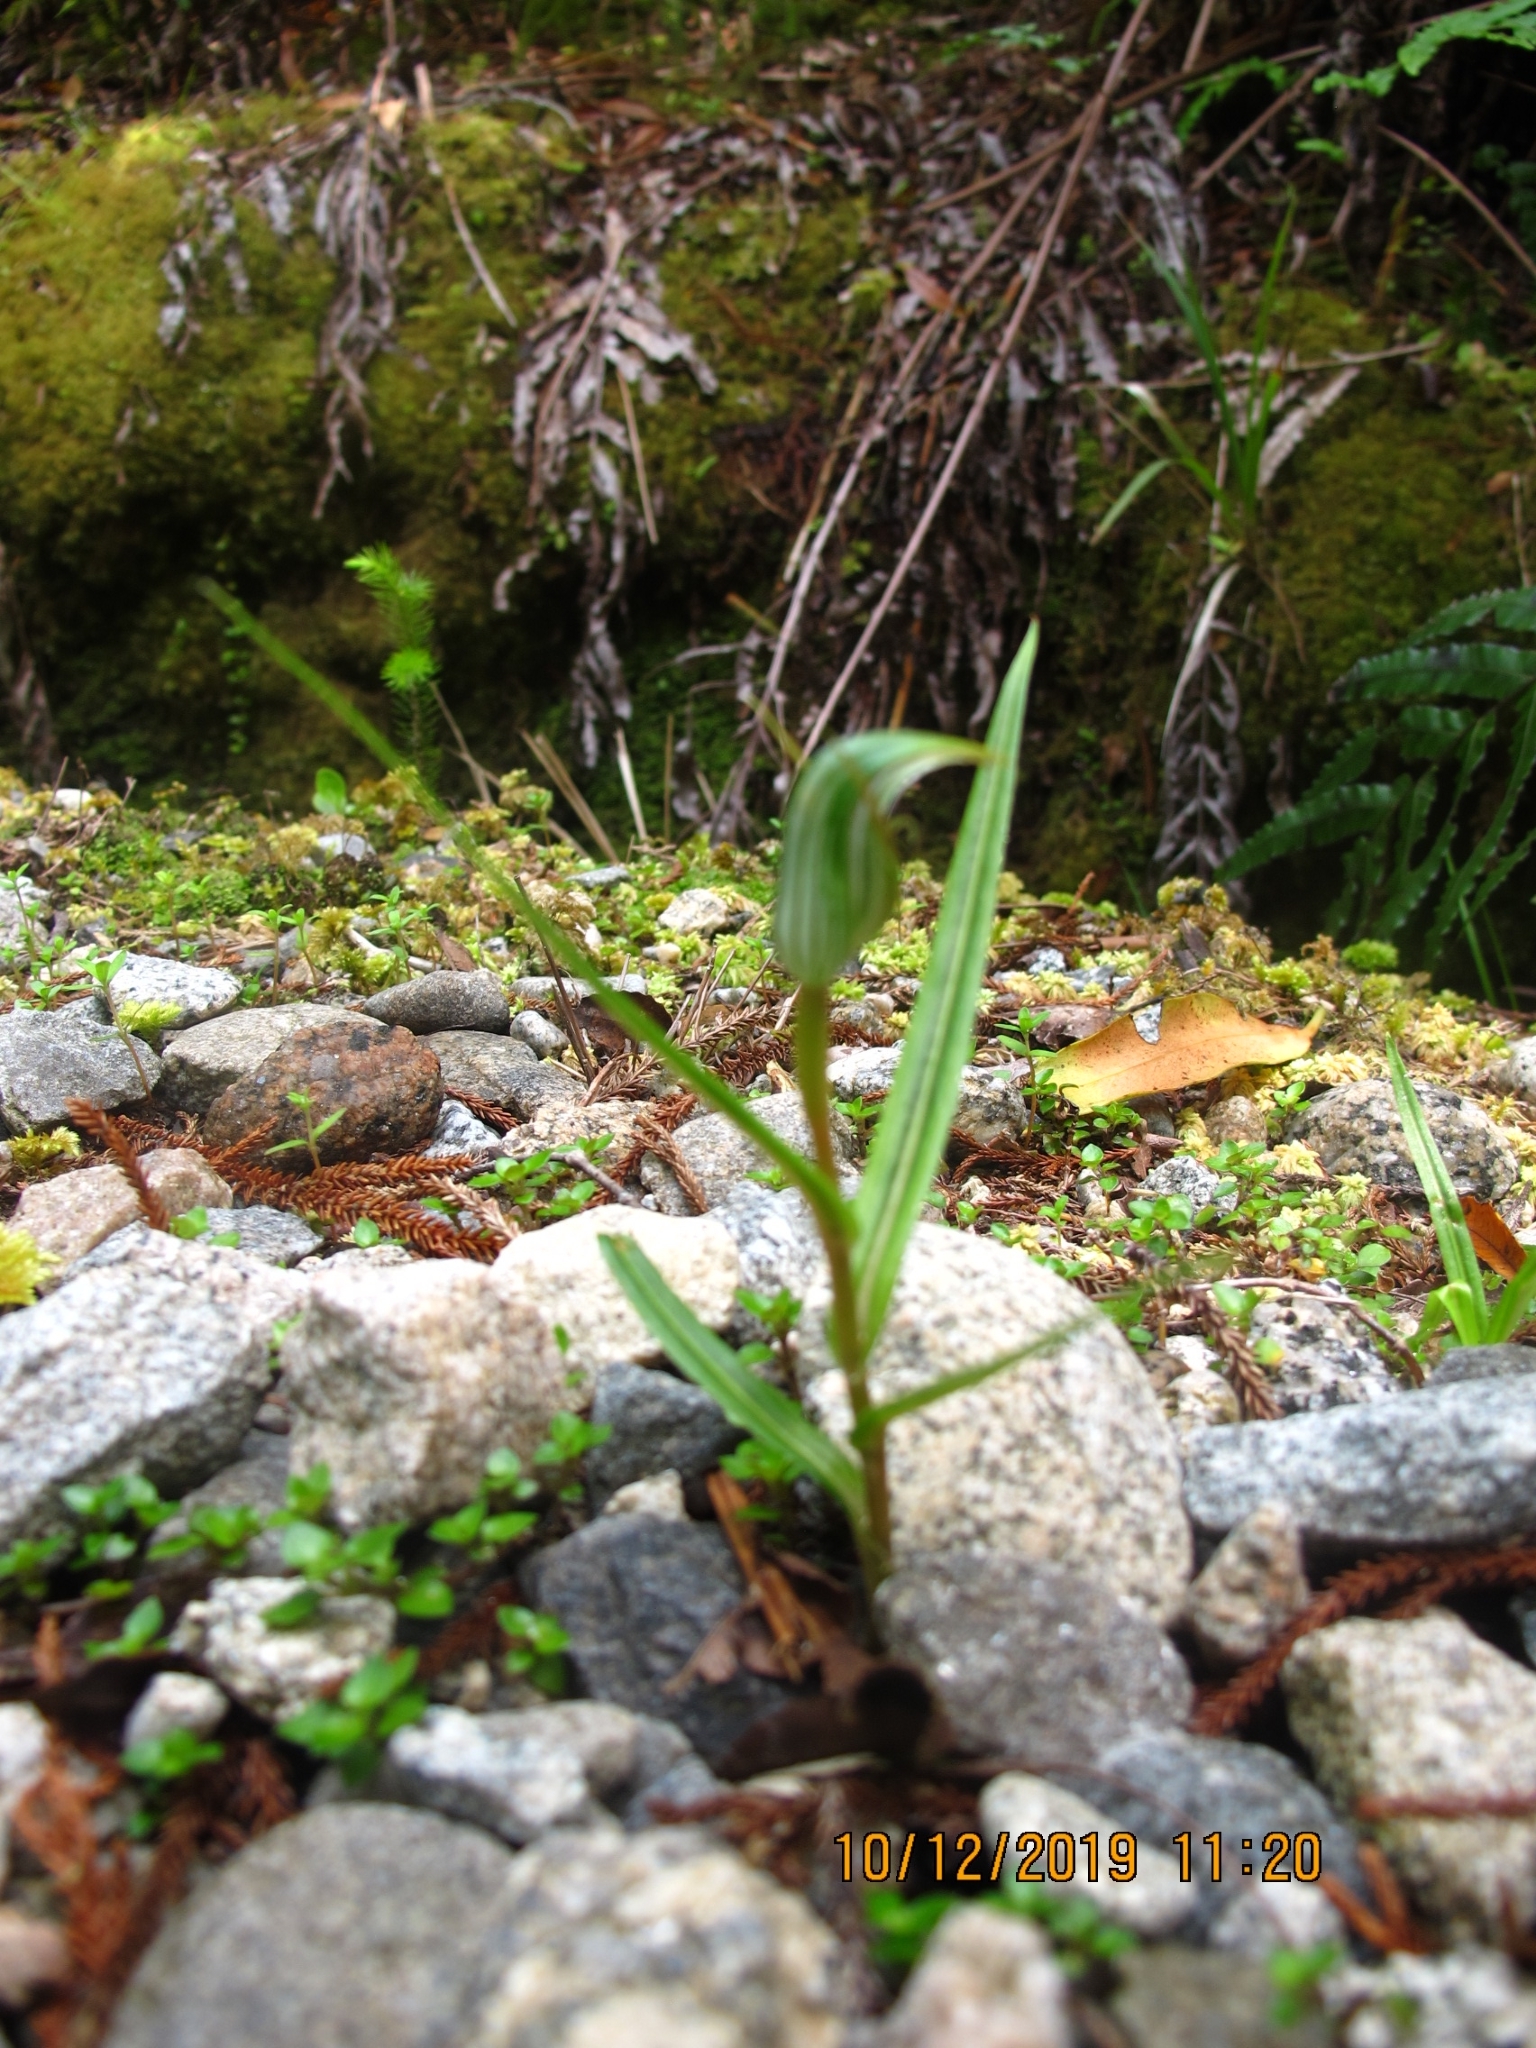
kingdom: Plantae
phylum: Tracheophyta
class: Liliopsida
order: Asparagales
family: Orchidaceae
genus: Pterostylis
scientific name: Pterostylis irsoniana
